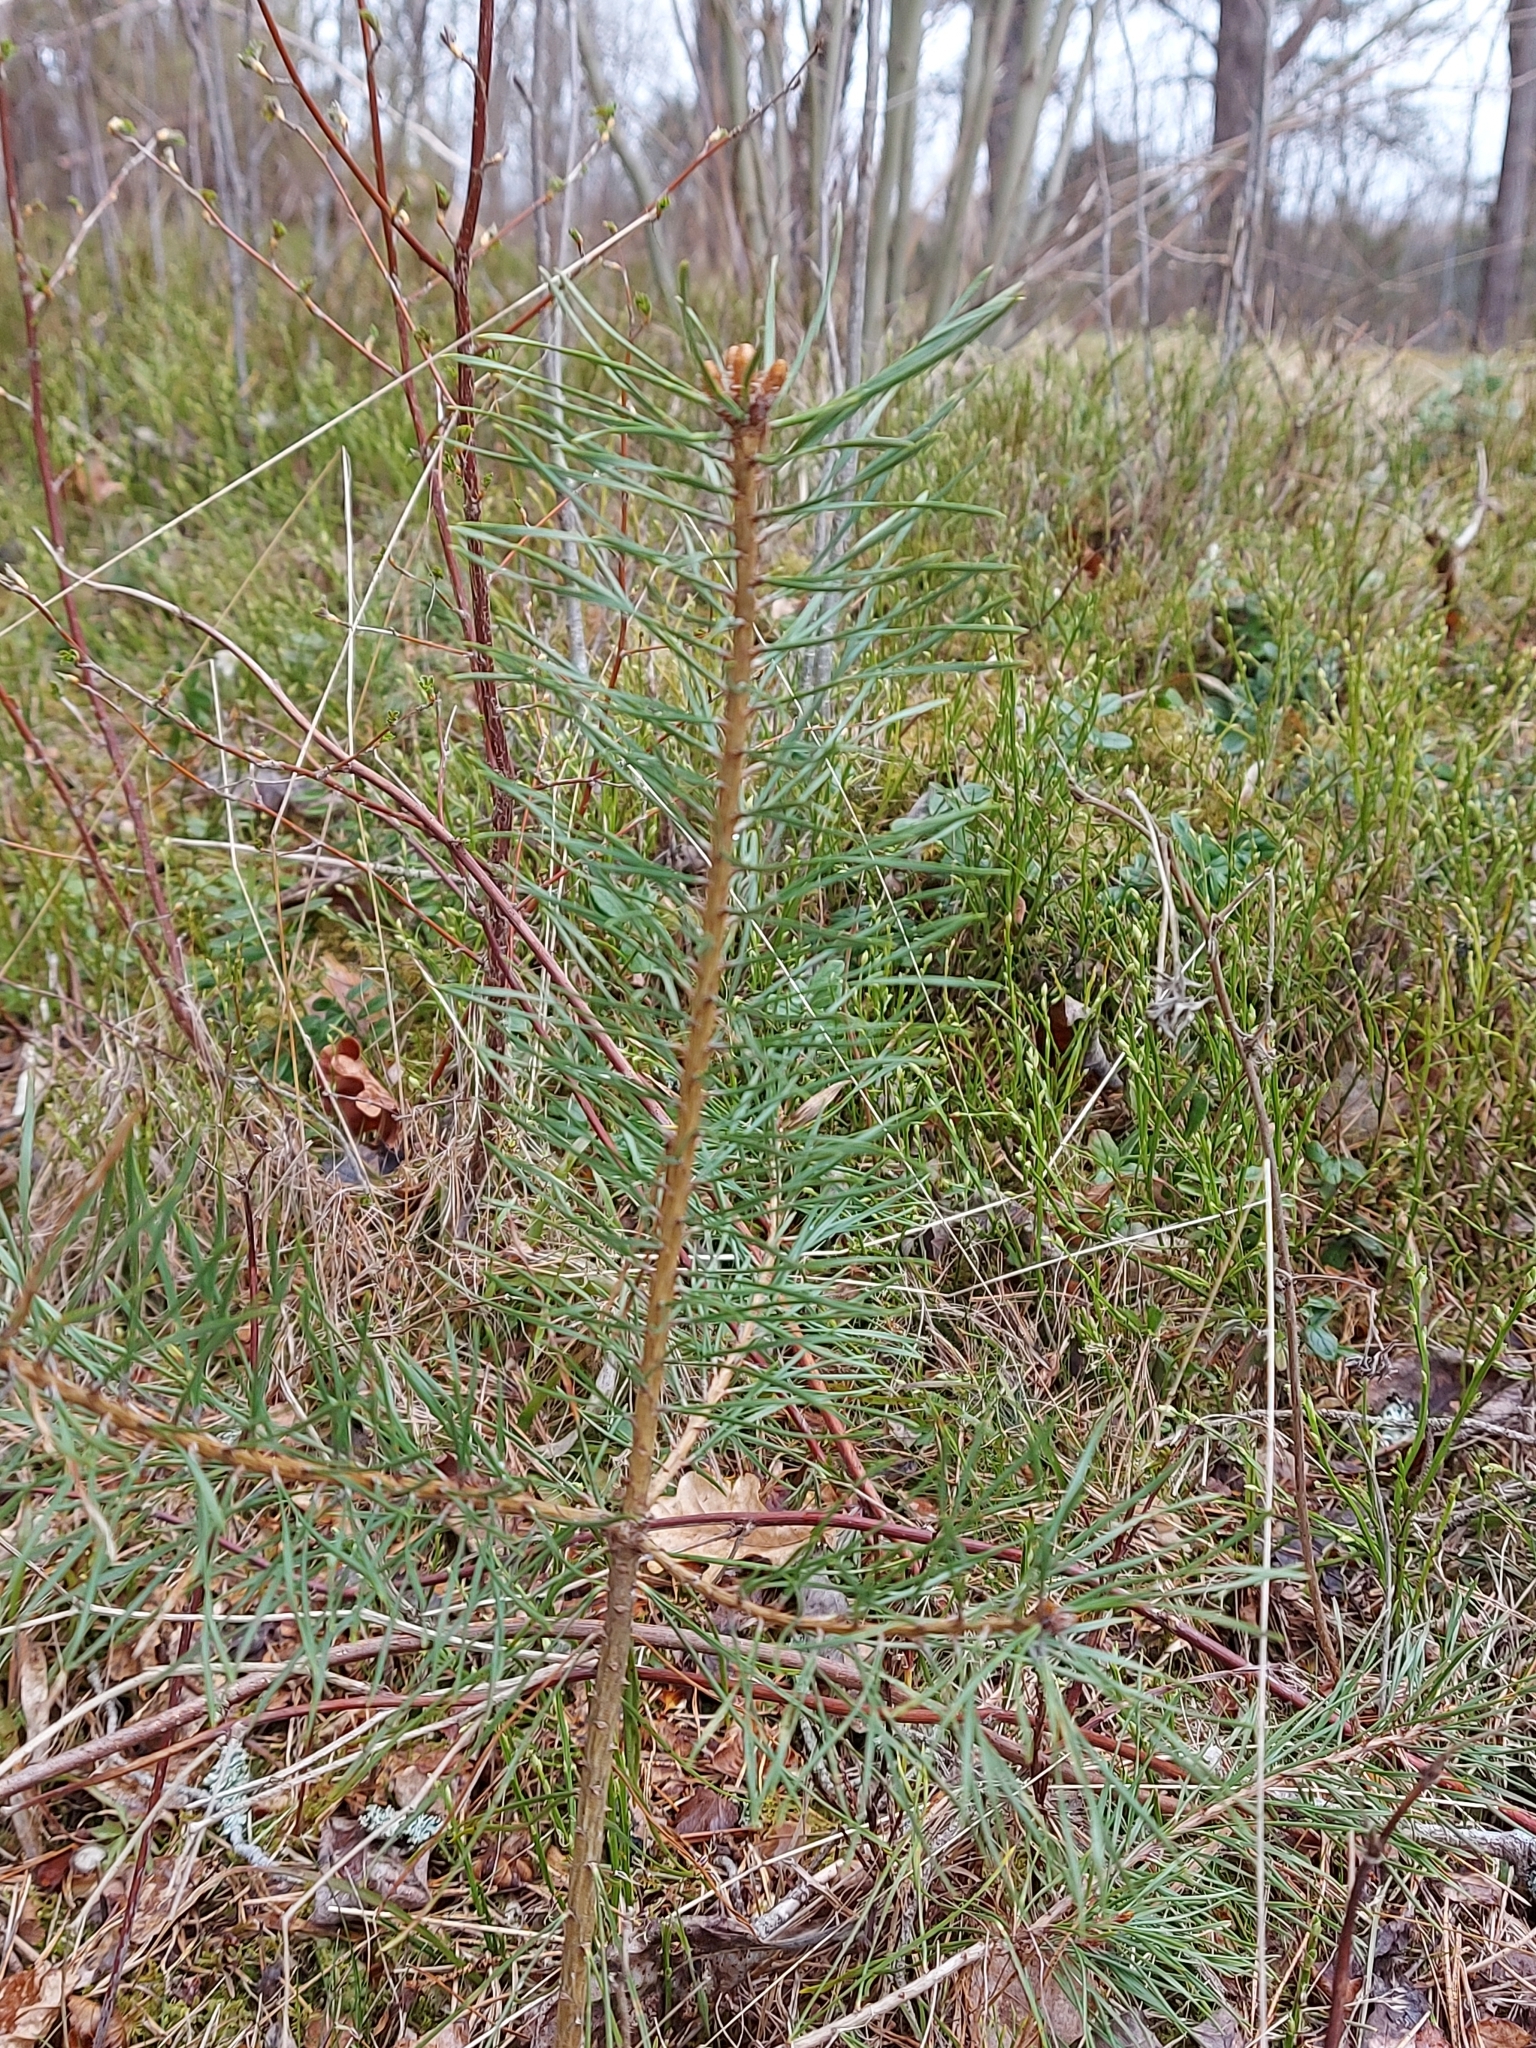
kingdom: Plantae
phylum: Tracheophyta
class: Pinopsida
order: Pinales
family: Pinaceae
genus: Pinus
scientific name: Pinus sylvestris
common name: Scots pine
